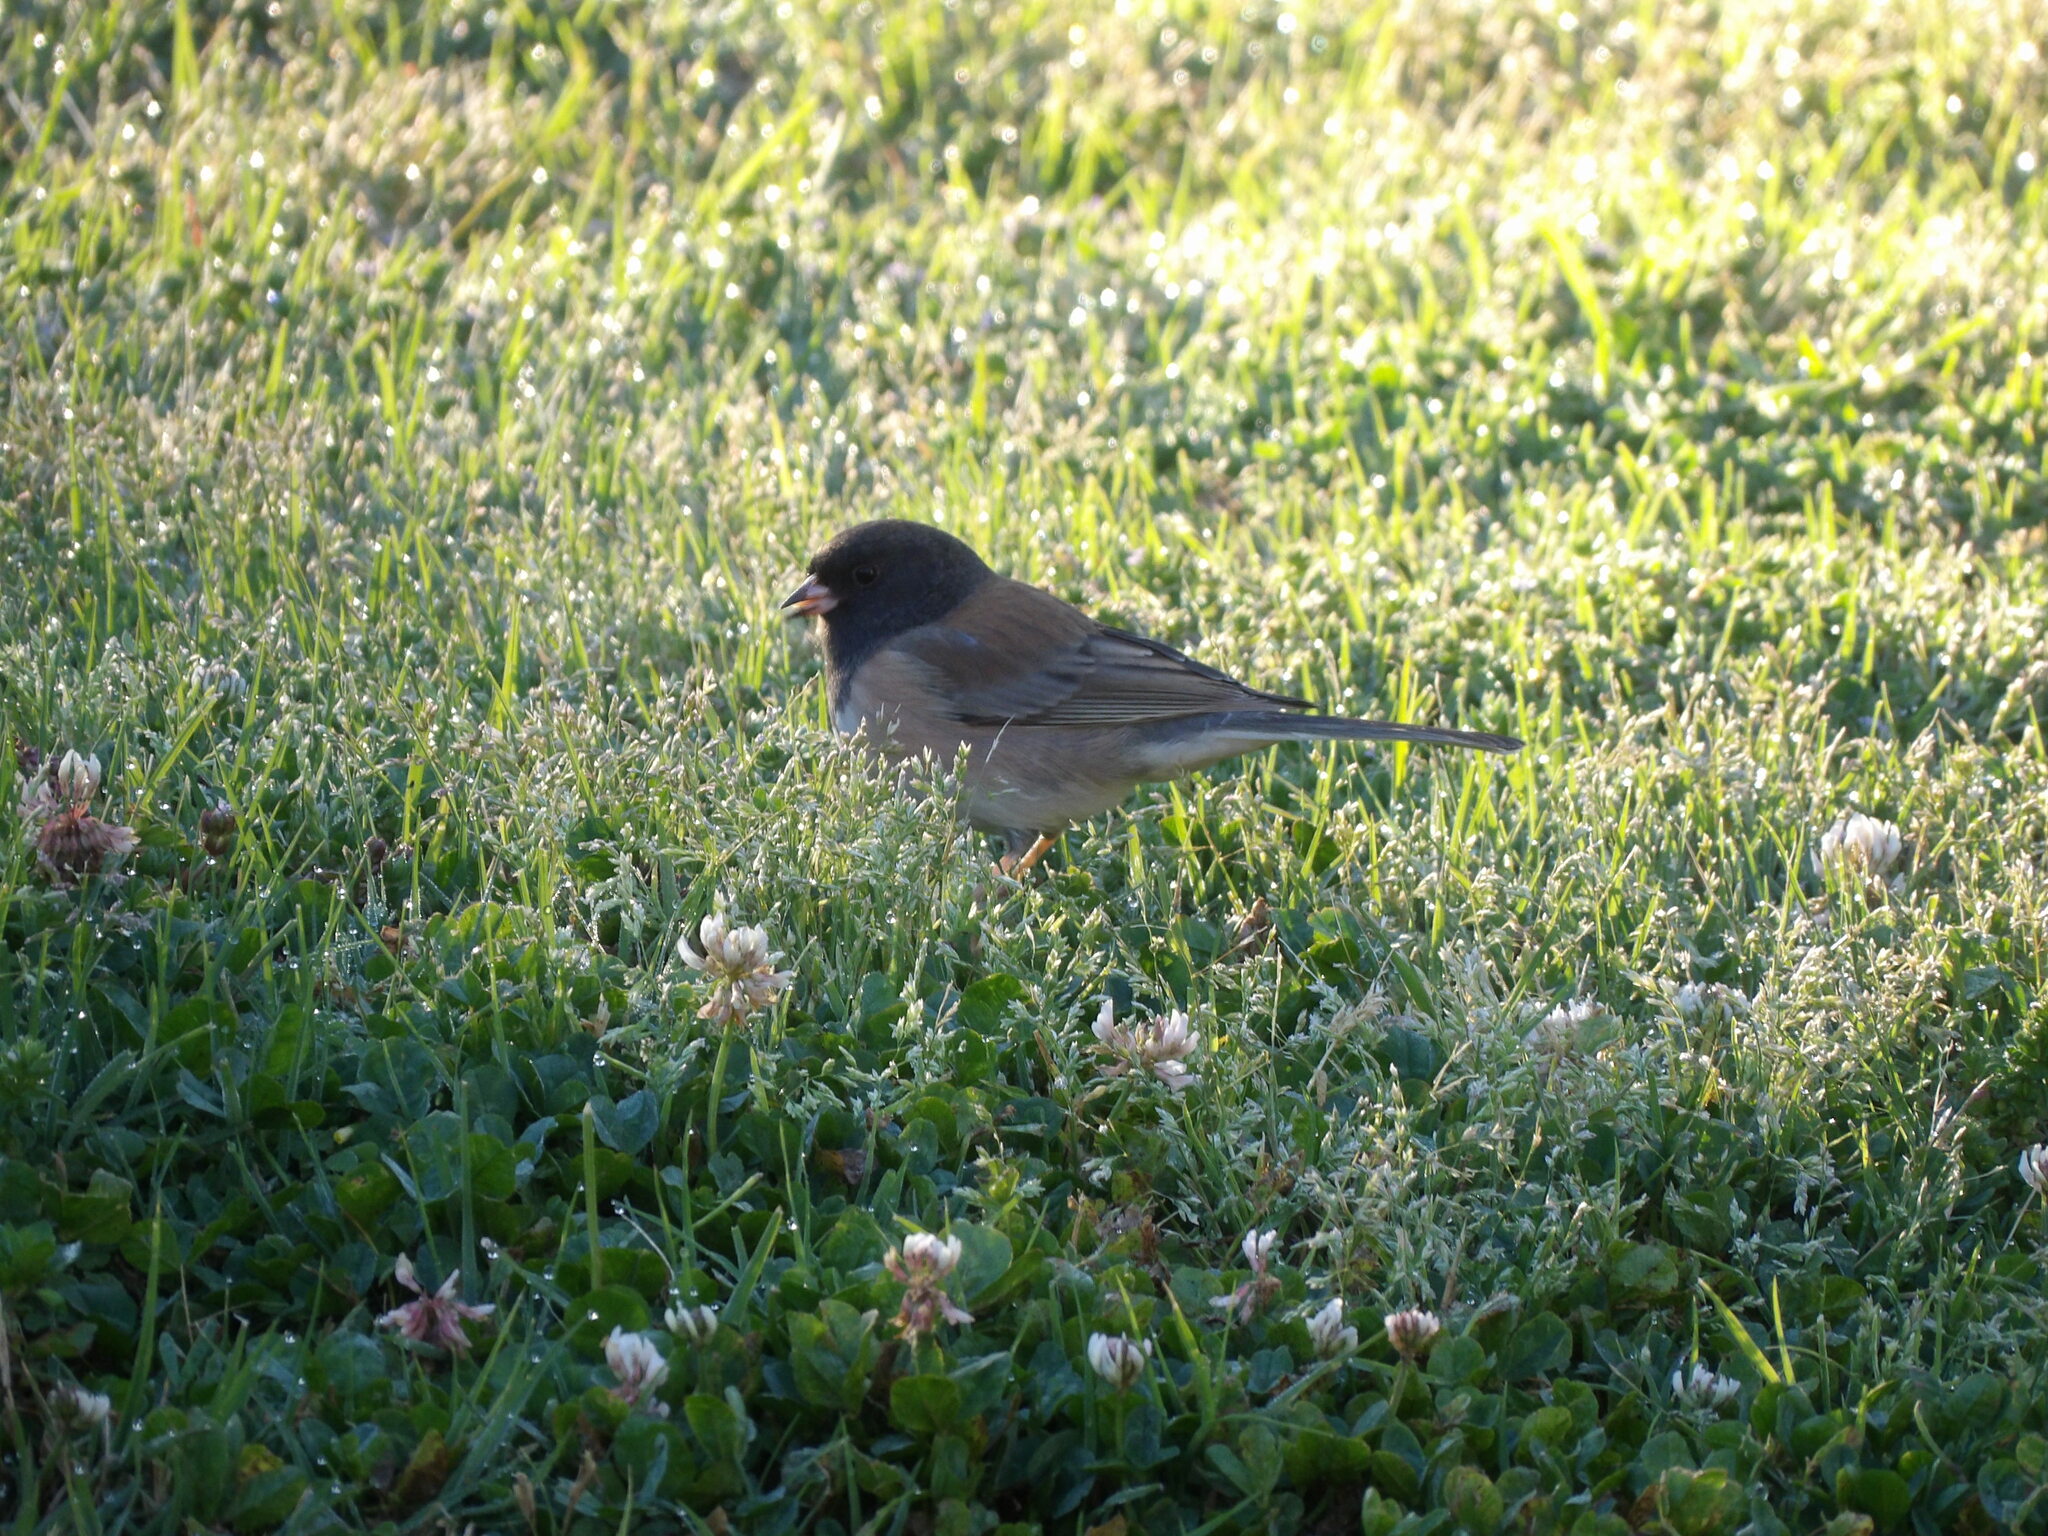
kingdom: Animalia
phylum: Chordata
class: Aves
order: Passeriformes
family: Passerellidae
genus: Junco
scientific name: Junco hyemalis
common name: Dark-eyed junco
